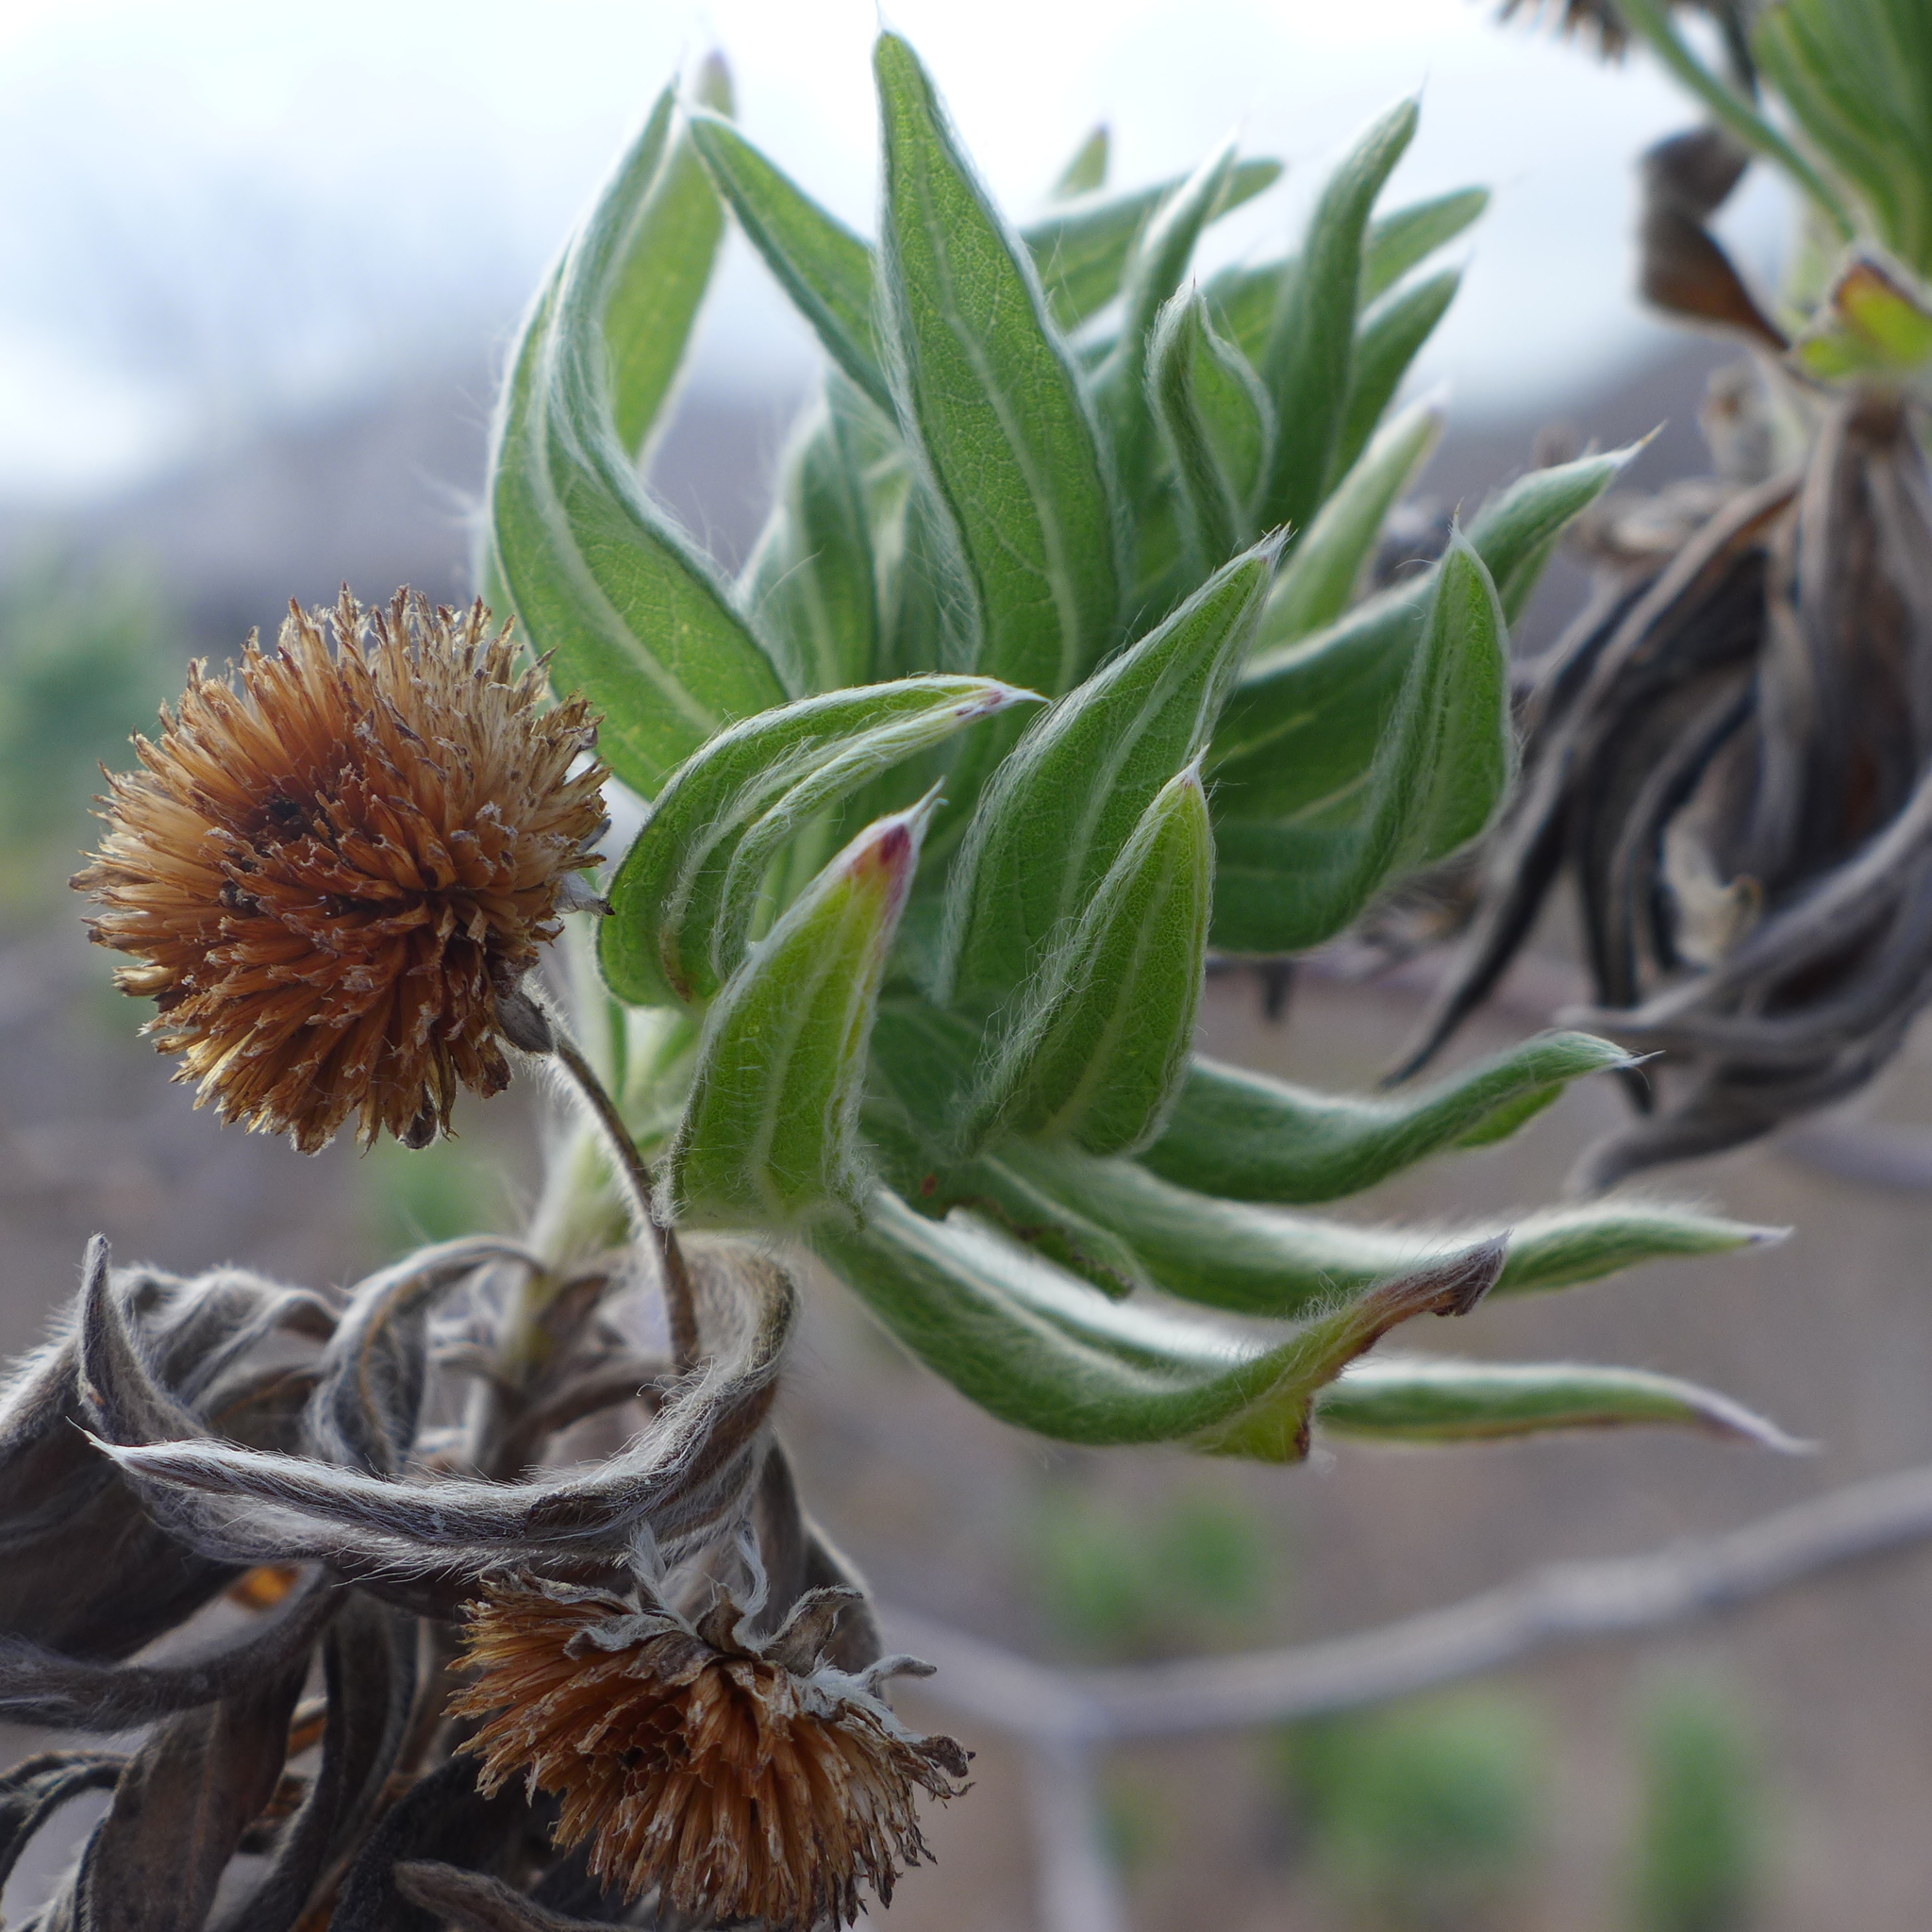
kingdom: Plantae
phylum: Tracheophyta
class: Magnoliopsida
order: Asterales
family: Asteraceae
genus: Scalesia
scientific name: Scalesia villosa
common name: Longhaired scalesia
